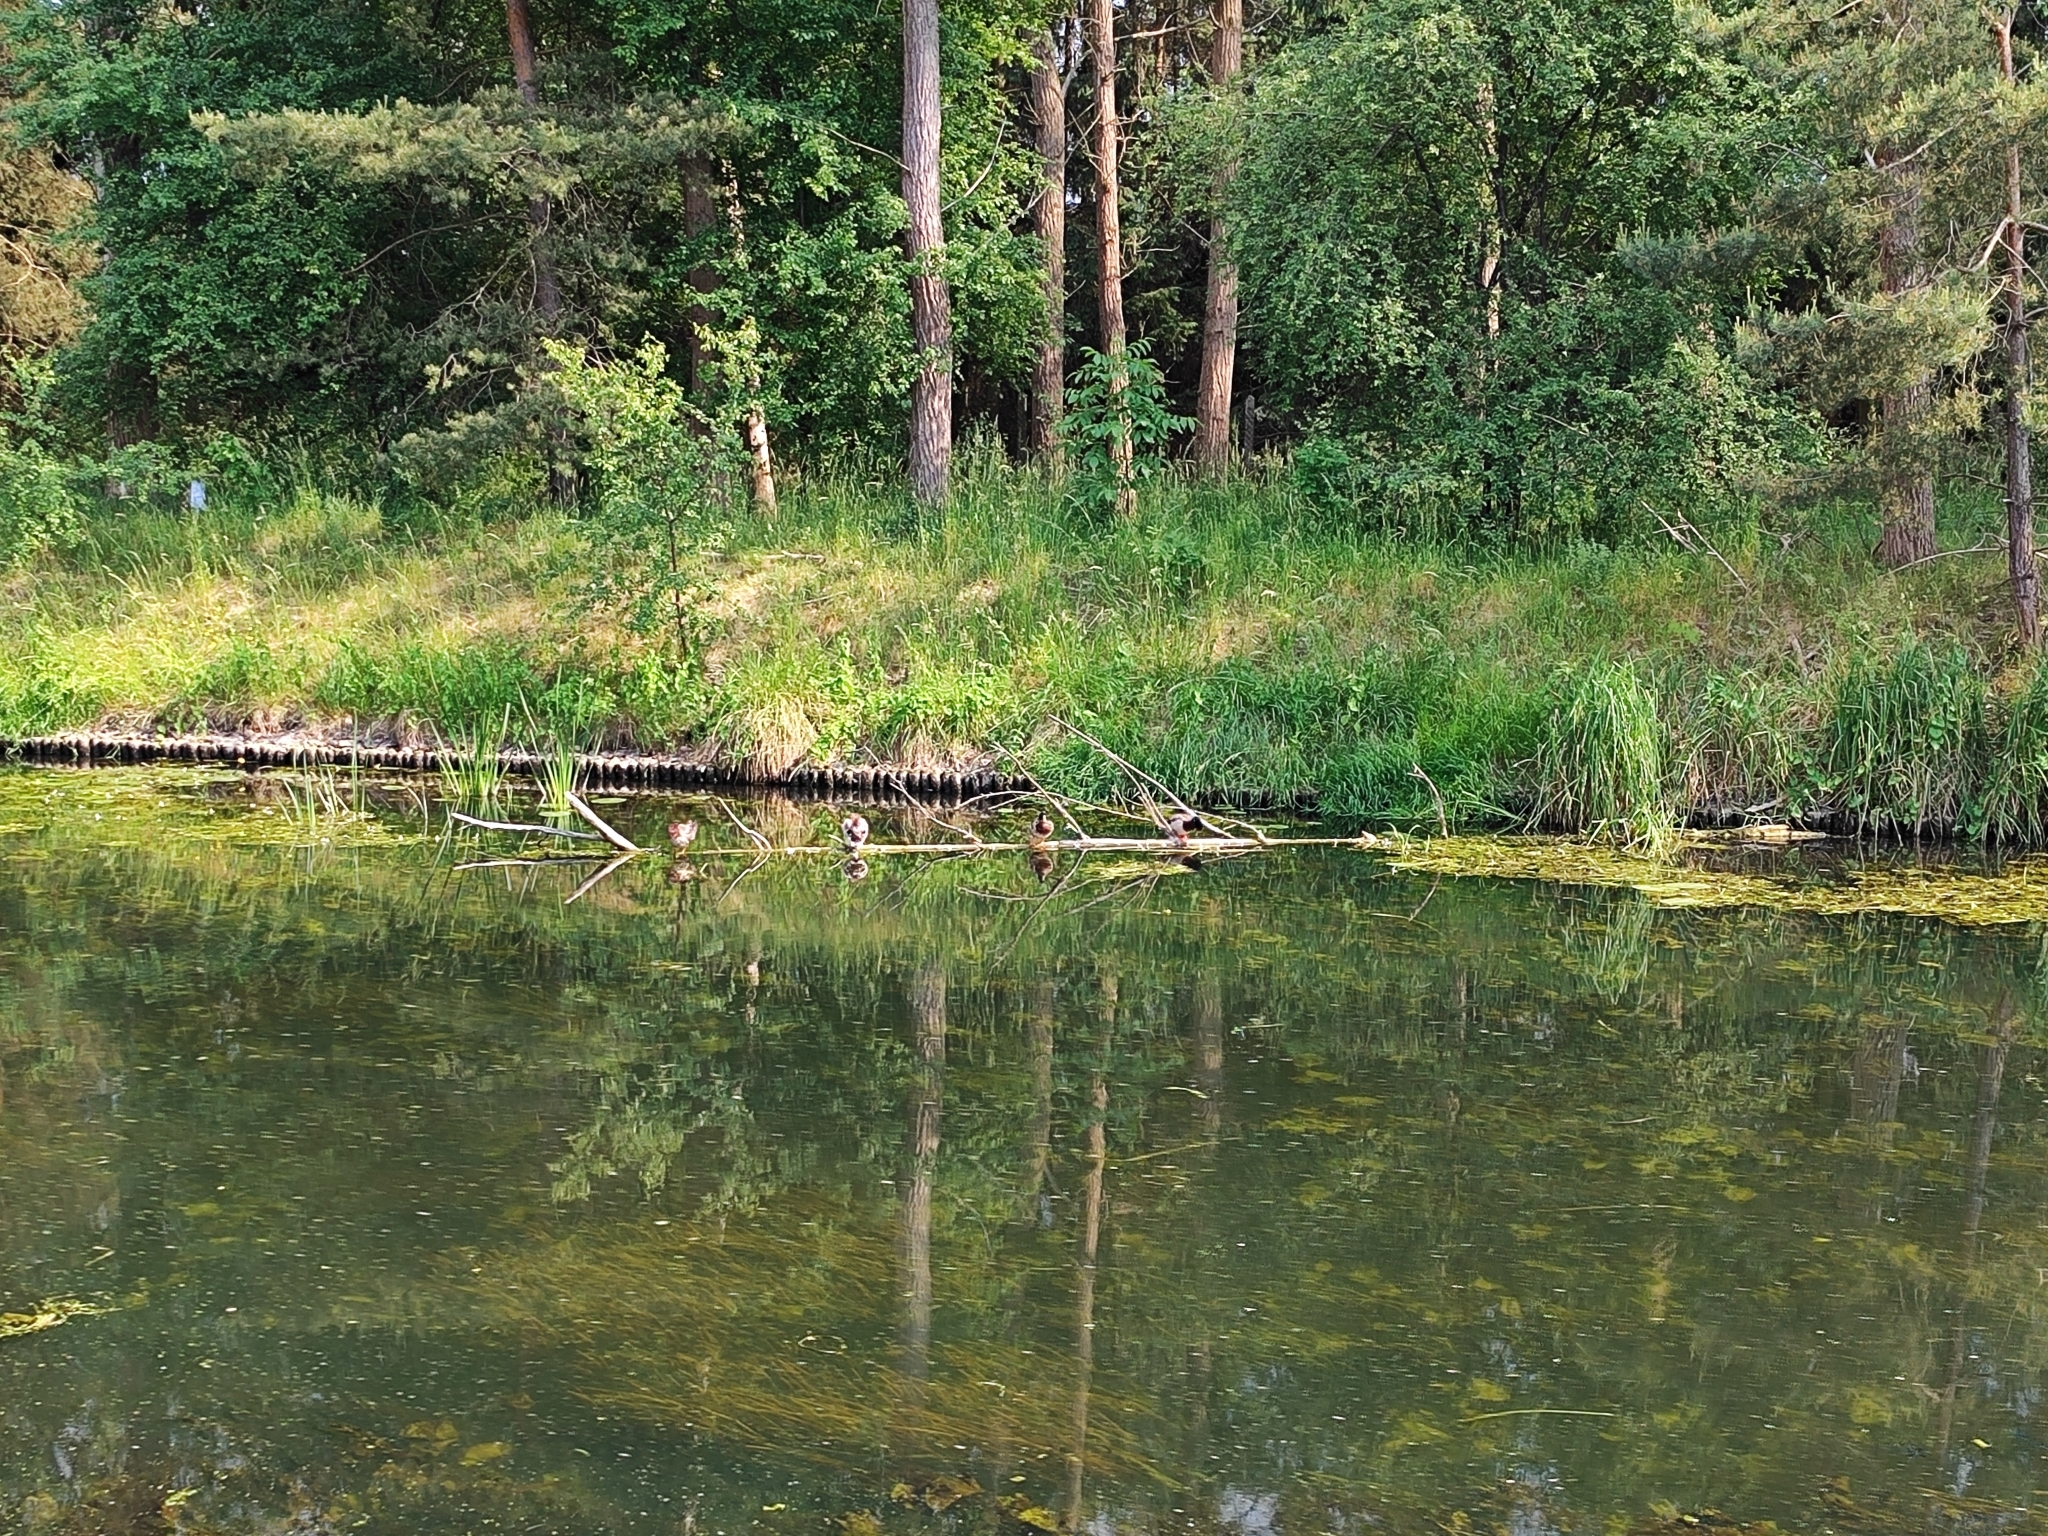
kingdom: Animalia
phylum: Chordata
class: Aves
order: Anseriformes
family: Anatidae
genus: Anas
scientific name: Anas platyrhynchos
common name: Mallard
